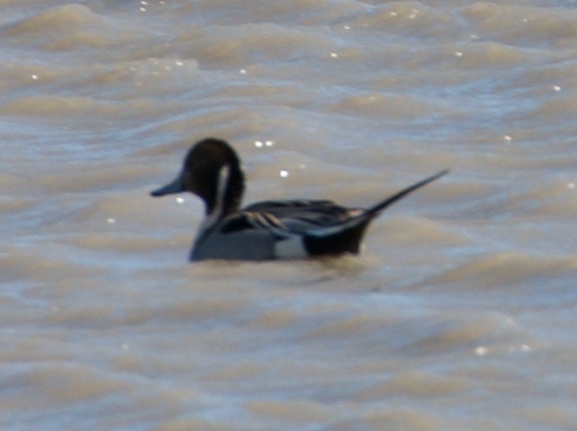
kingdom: Animalia
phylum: Chordata
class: Aves
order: Anseriformes
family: Anatidae
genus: Anas
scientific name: Anas acuta
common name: Northern pintail
